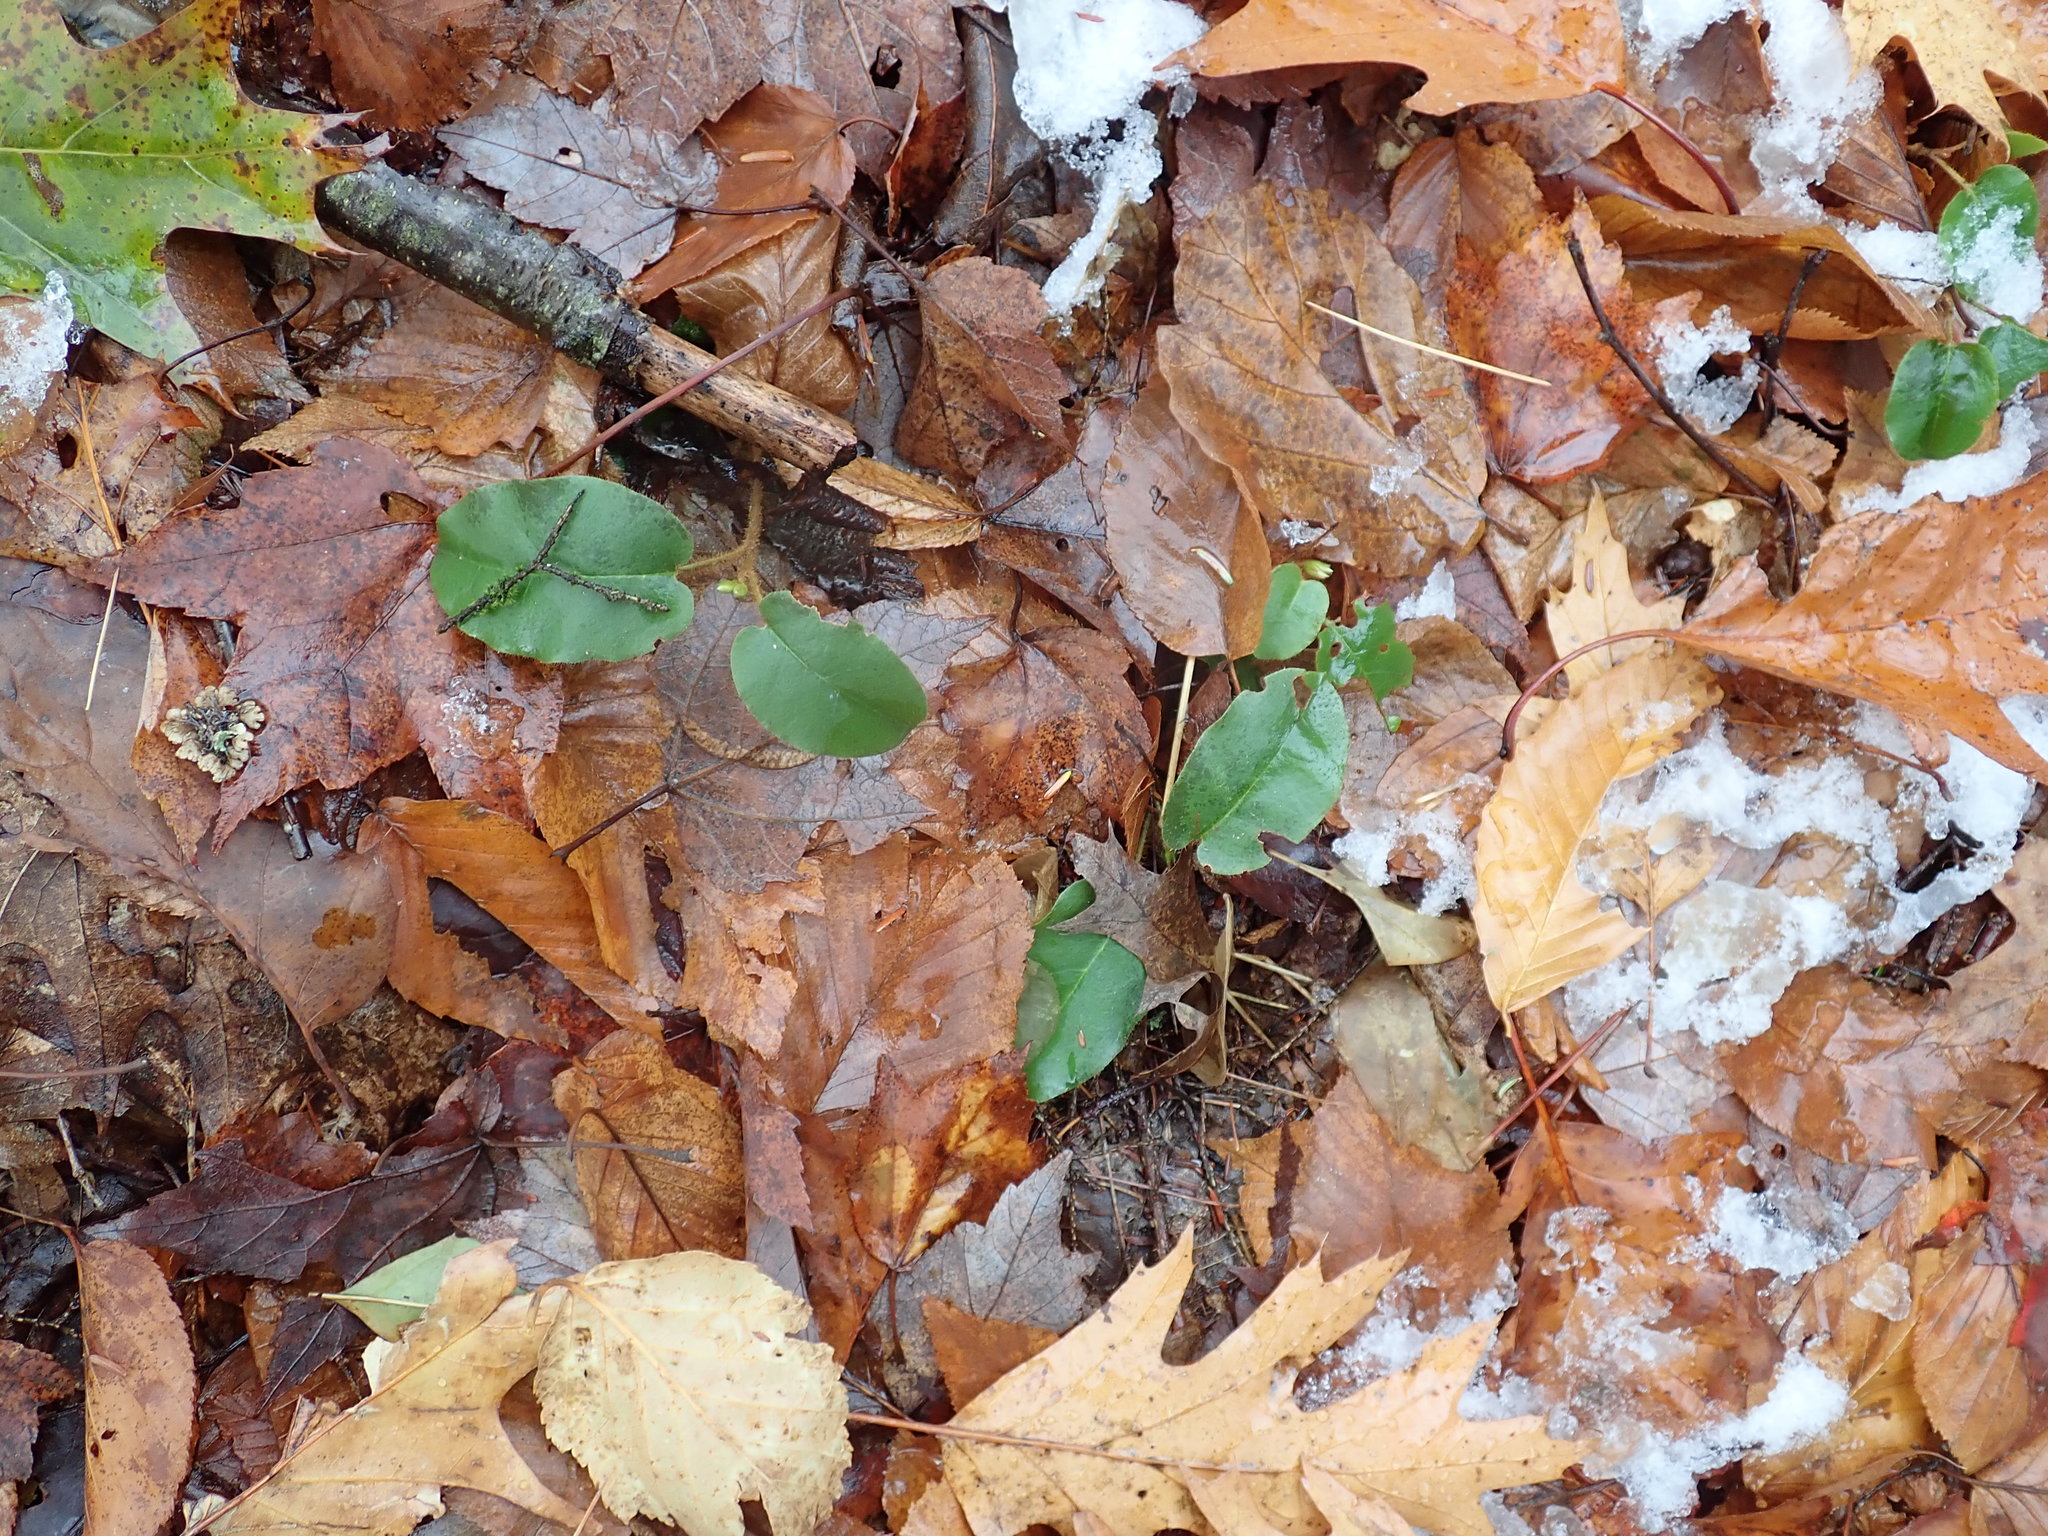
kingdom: Plantae
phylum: Tracheophyta
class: Magnoliopsida
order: Ericales
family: Ericaceae
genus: Epigaea
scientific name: Epigaea repens
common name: Gravelroot
